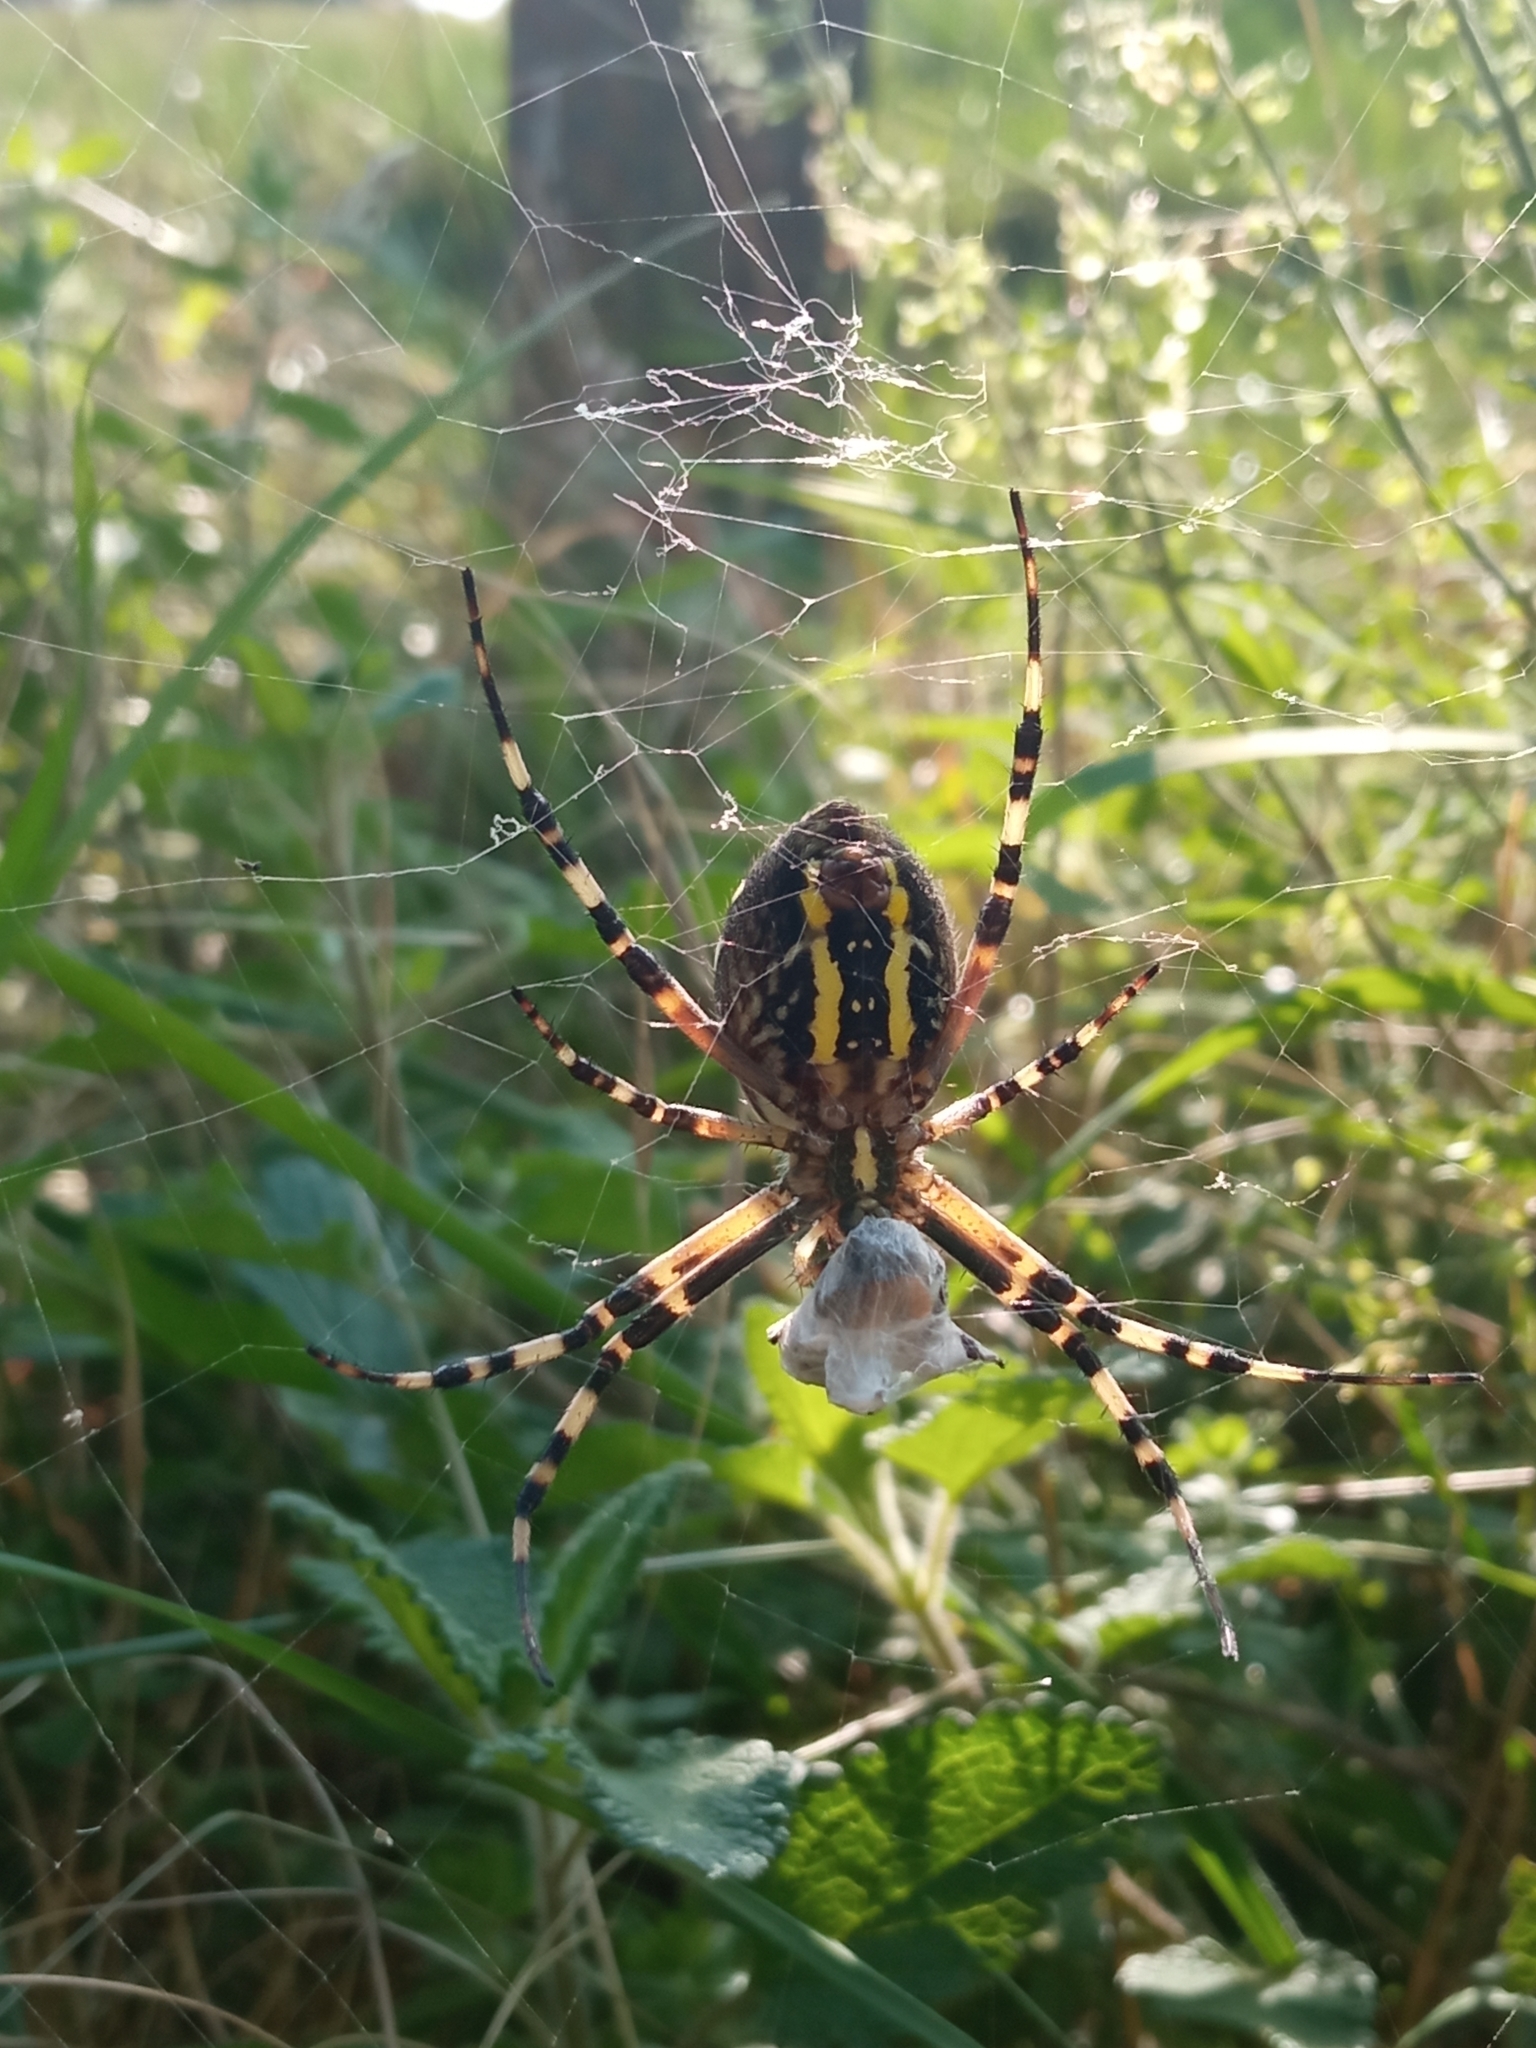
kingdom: Animalia
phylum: Arthropoda
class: Arachnida
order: Araneae
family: Araneidae
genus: Argiope
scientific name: Argiope bruennichi
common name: Wasp spider
